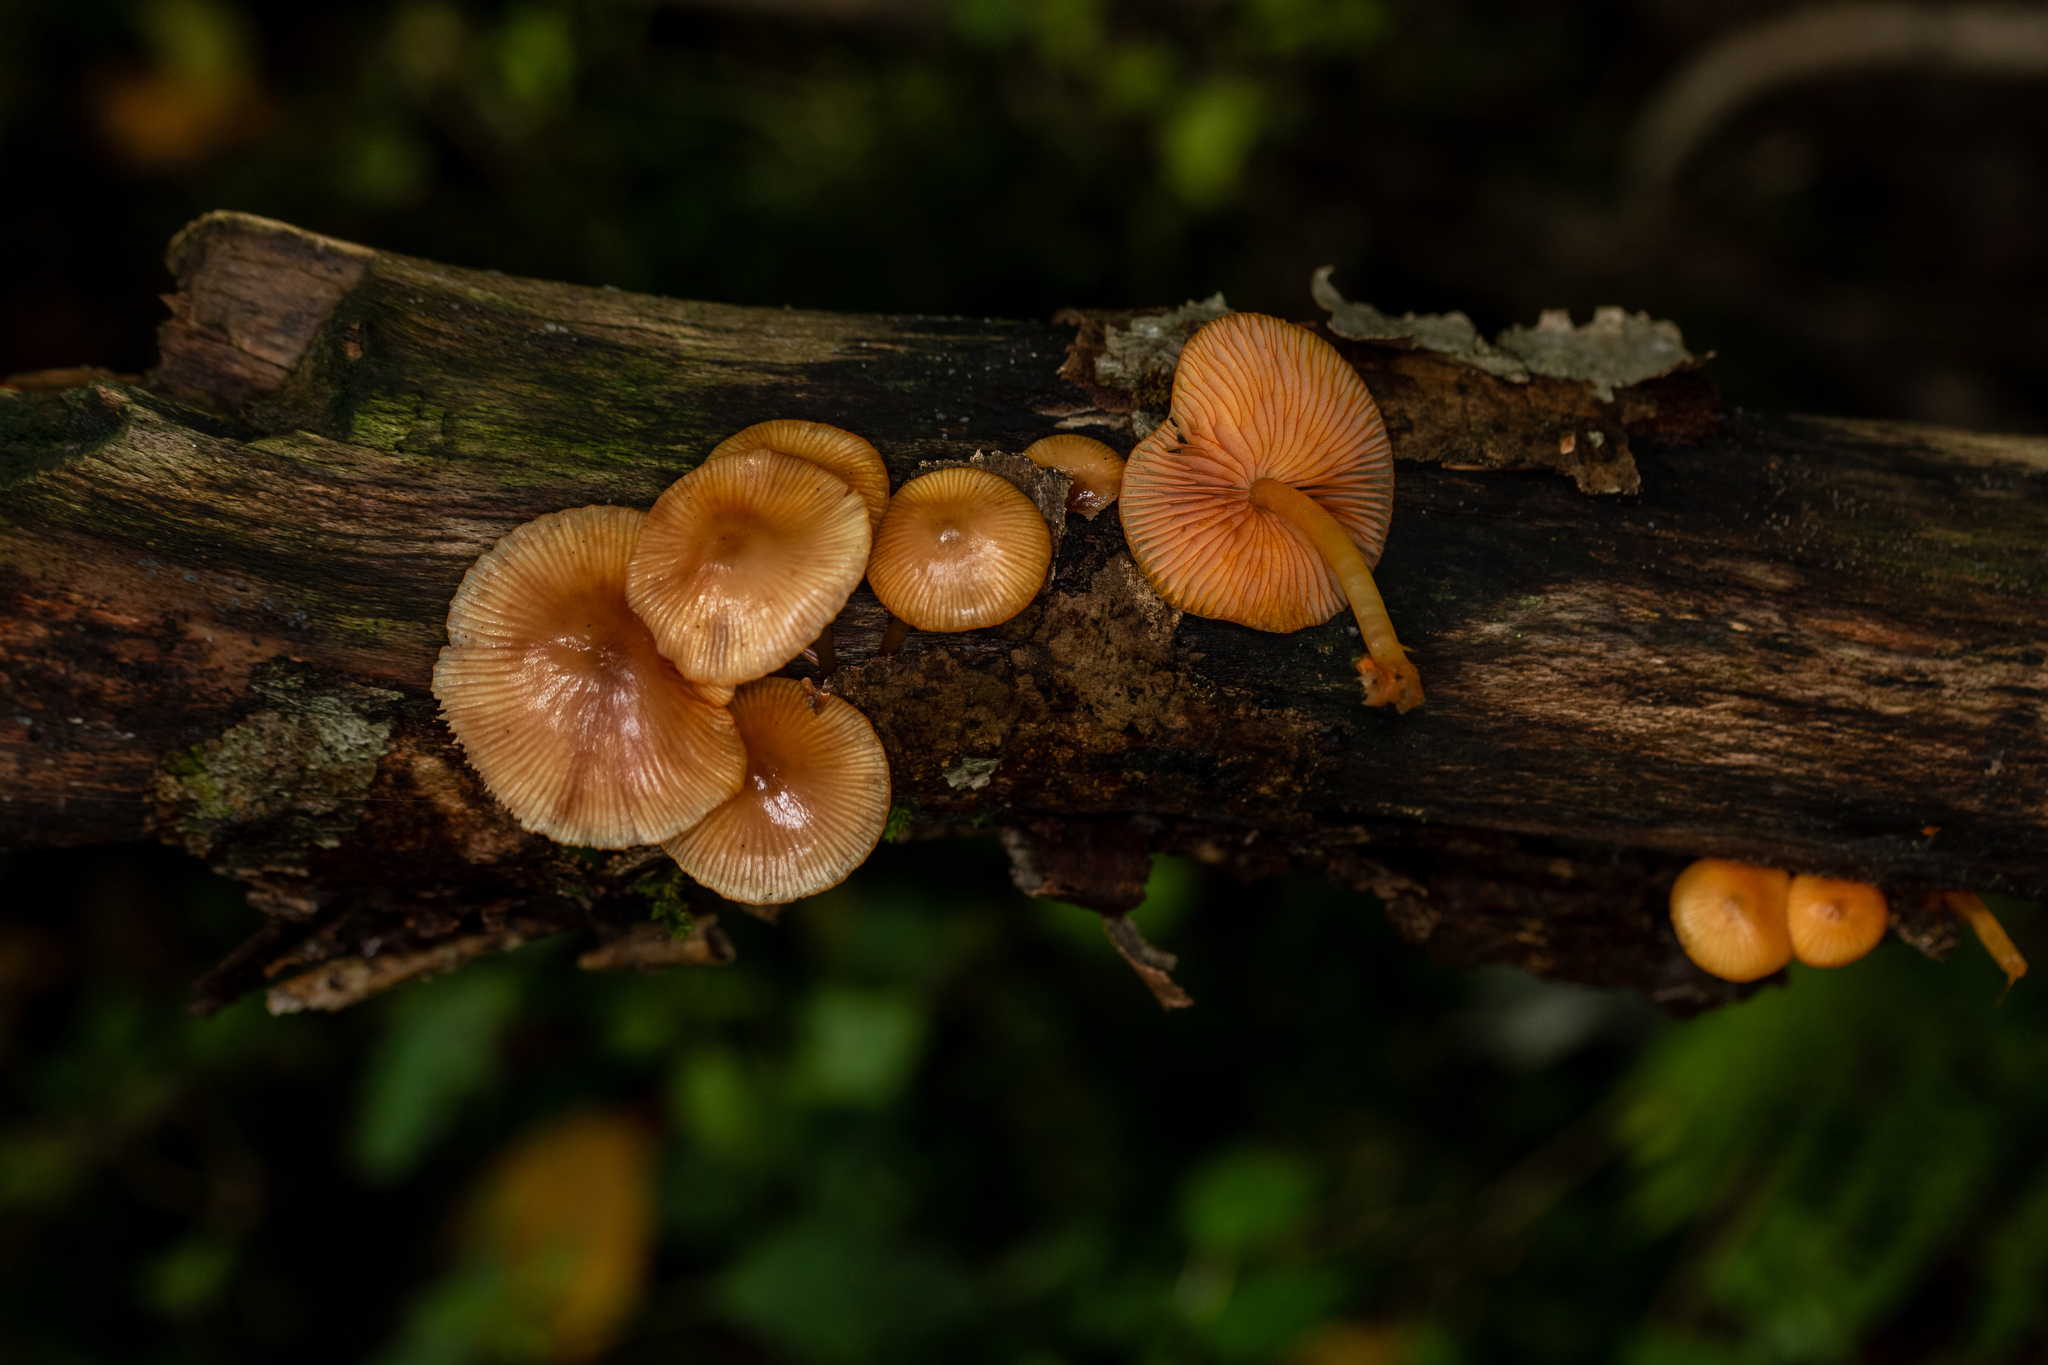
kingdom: Fungi
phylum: Basidiomycota
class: Agaricomycetes
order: Agaricales
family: Mycenaceae
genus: Mycena
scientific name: Mycena leaiana
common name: Orange mycena
